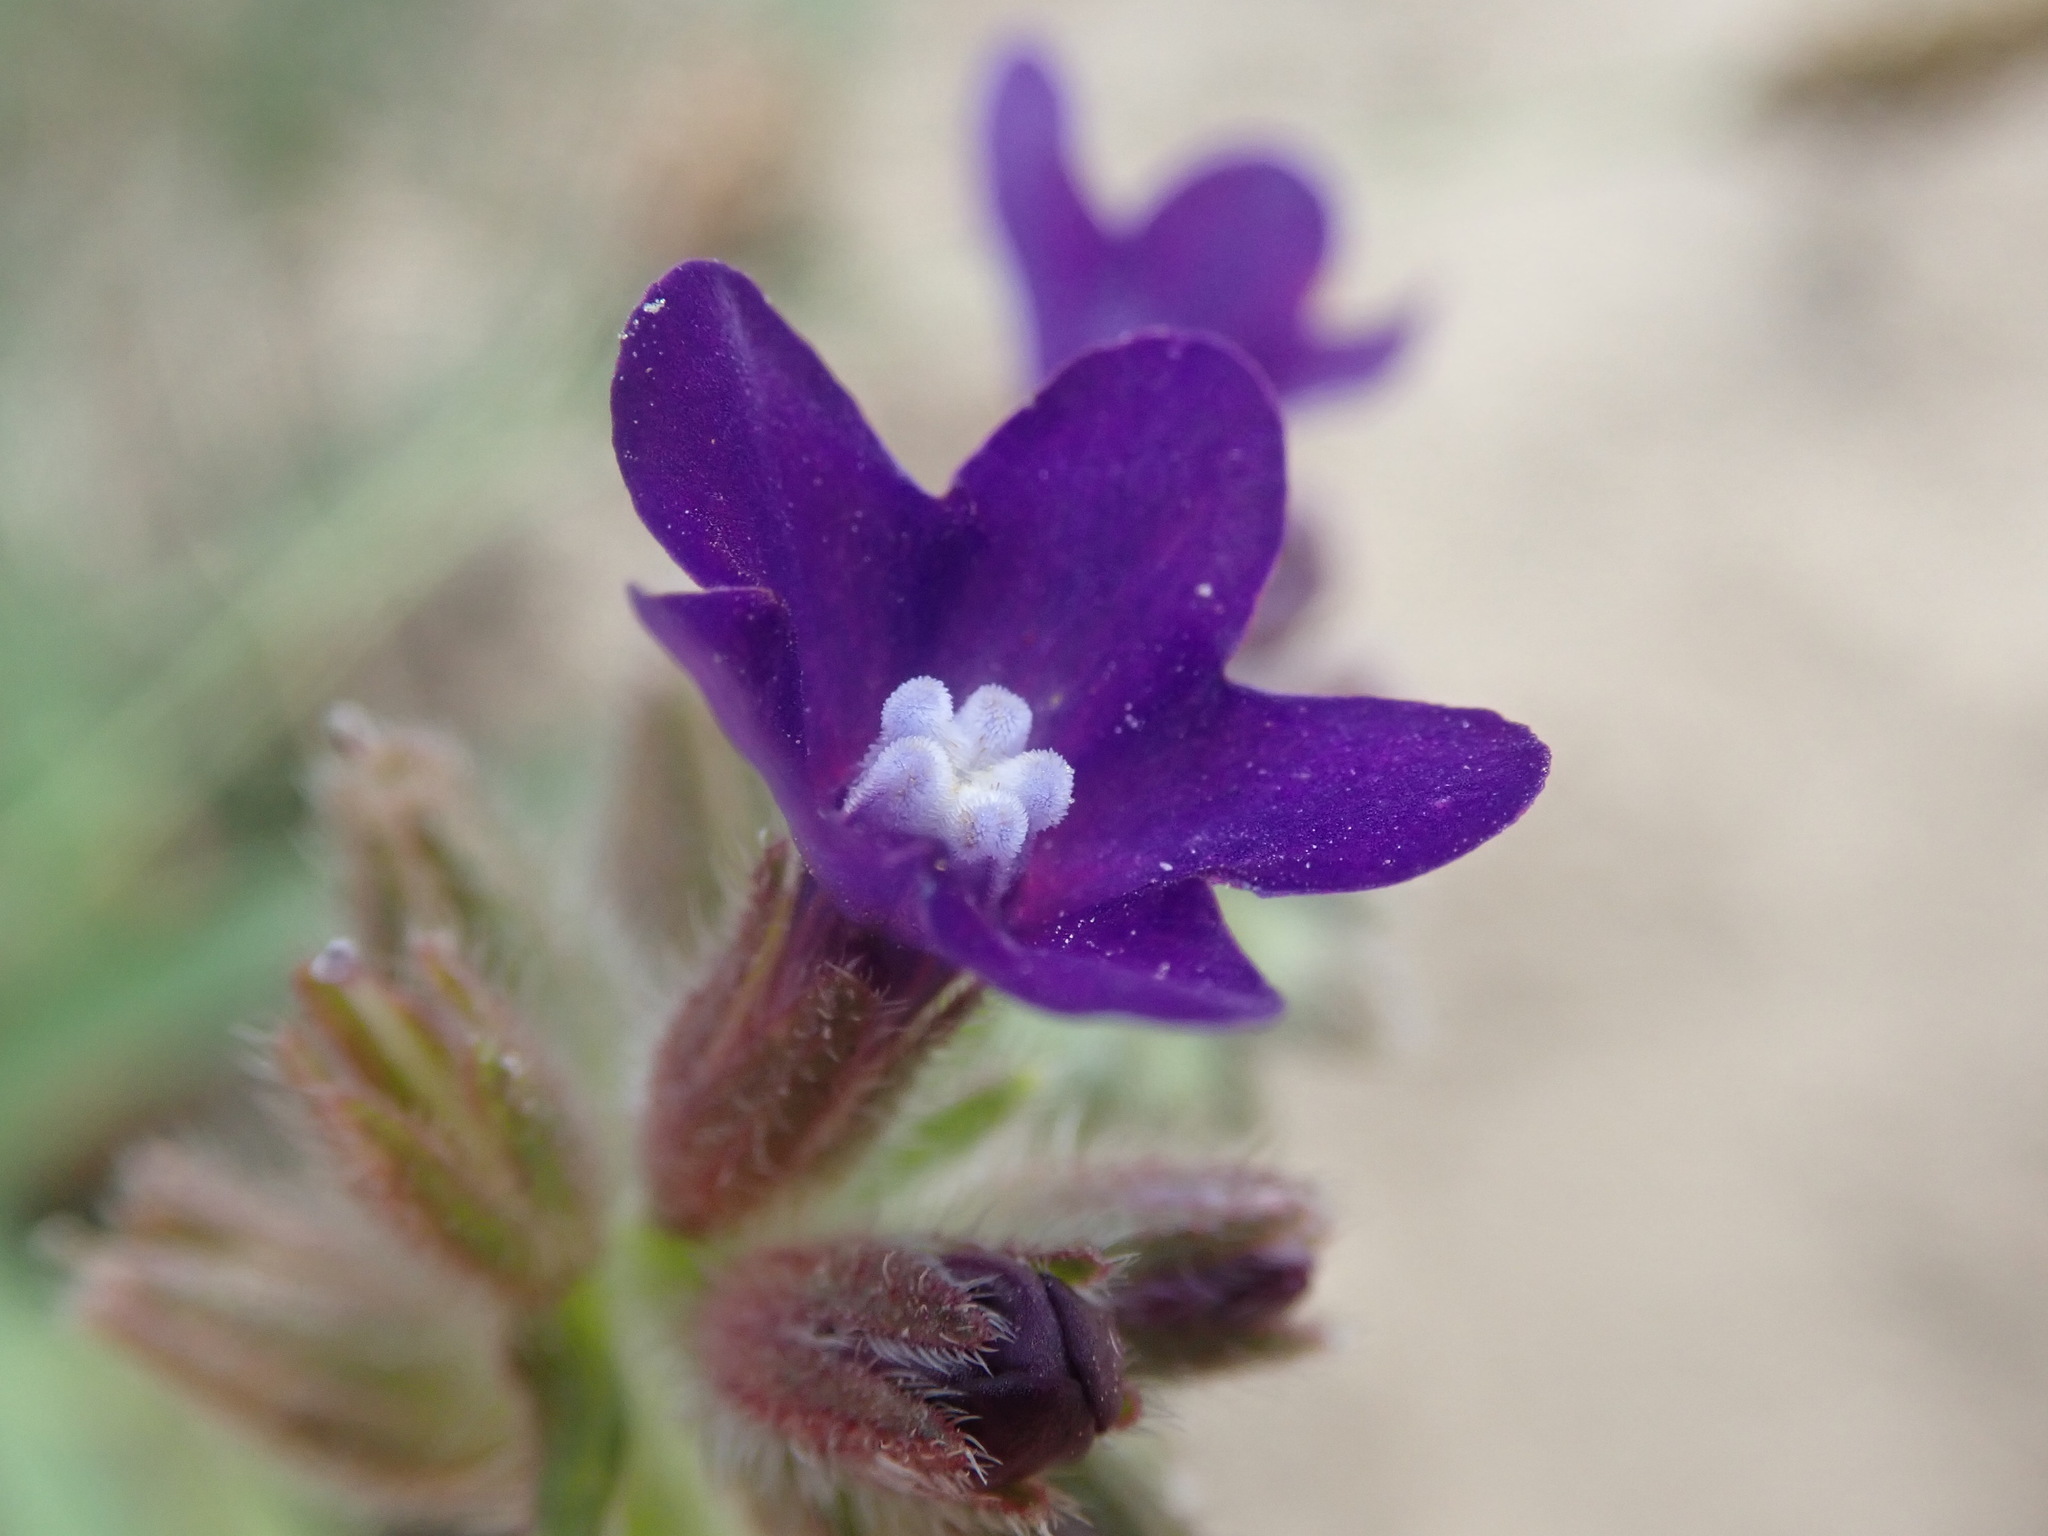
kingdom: Plantae
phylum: Tracheophyta
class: Magnoliopsida
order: Boraginales
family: Boraginaceae
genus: Anchusa
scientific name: Anchusa officinalis
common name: Alkanet
